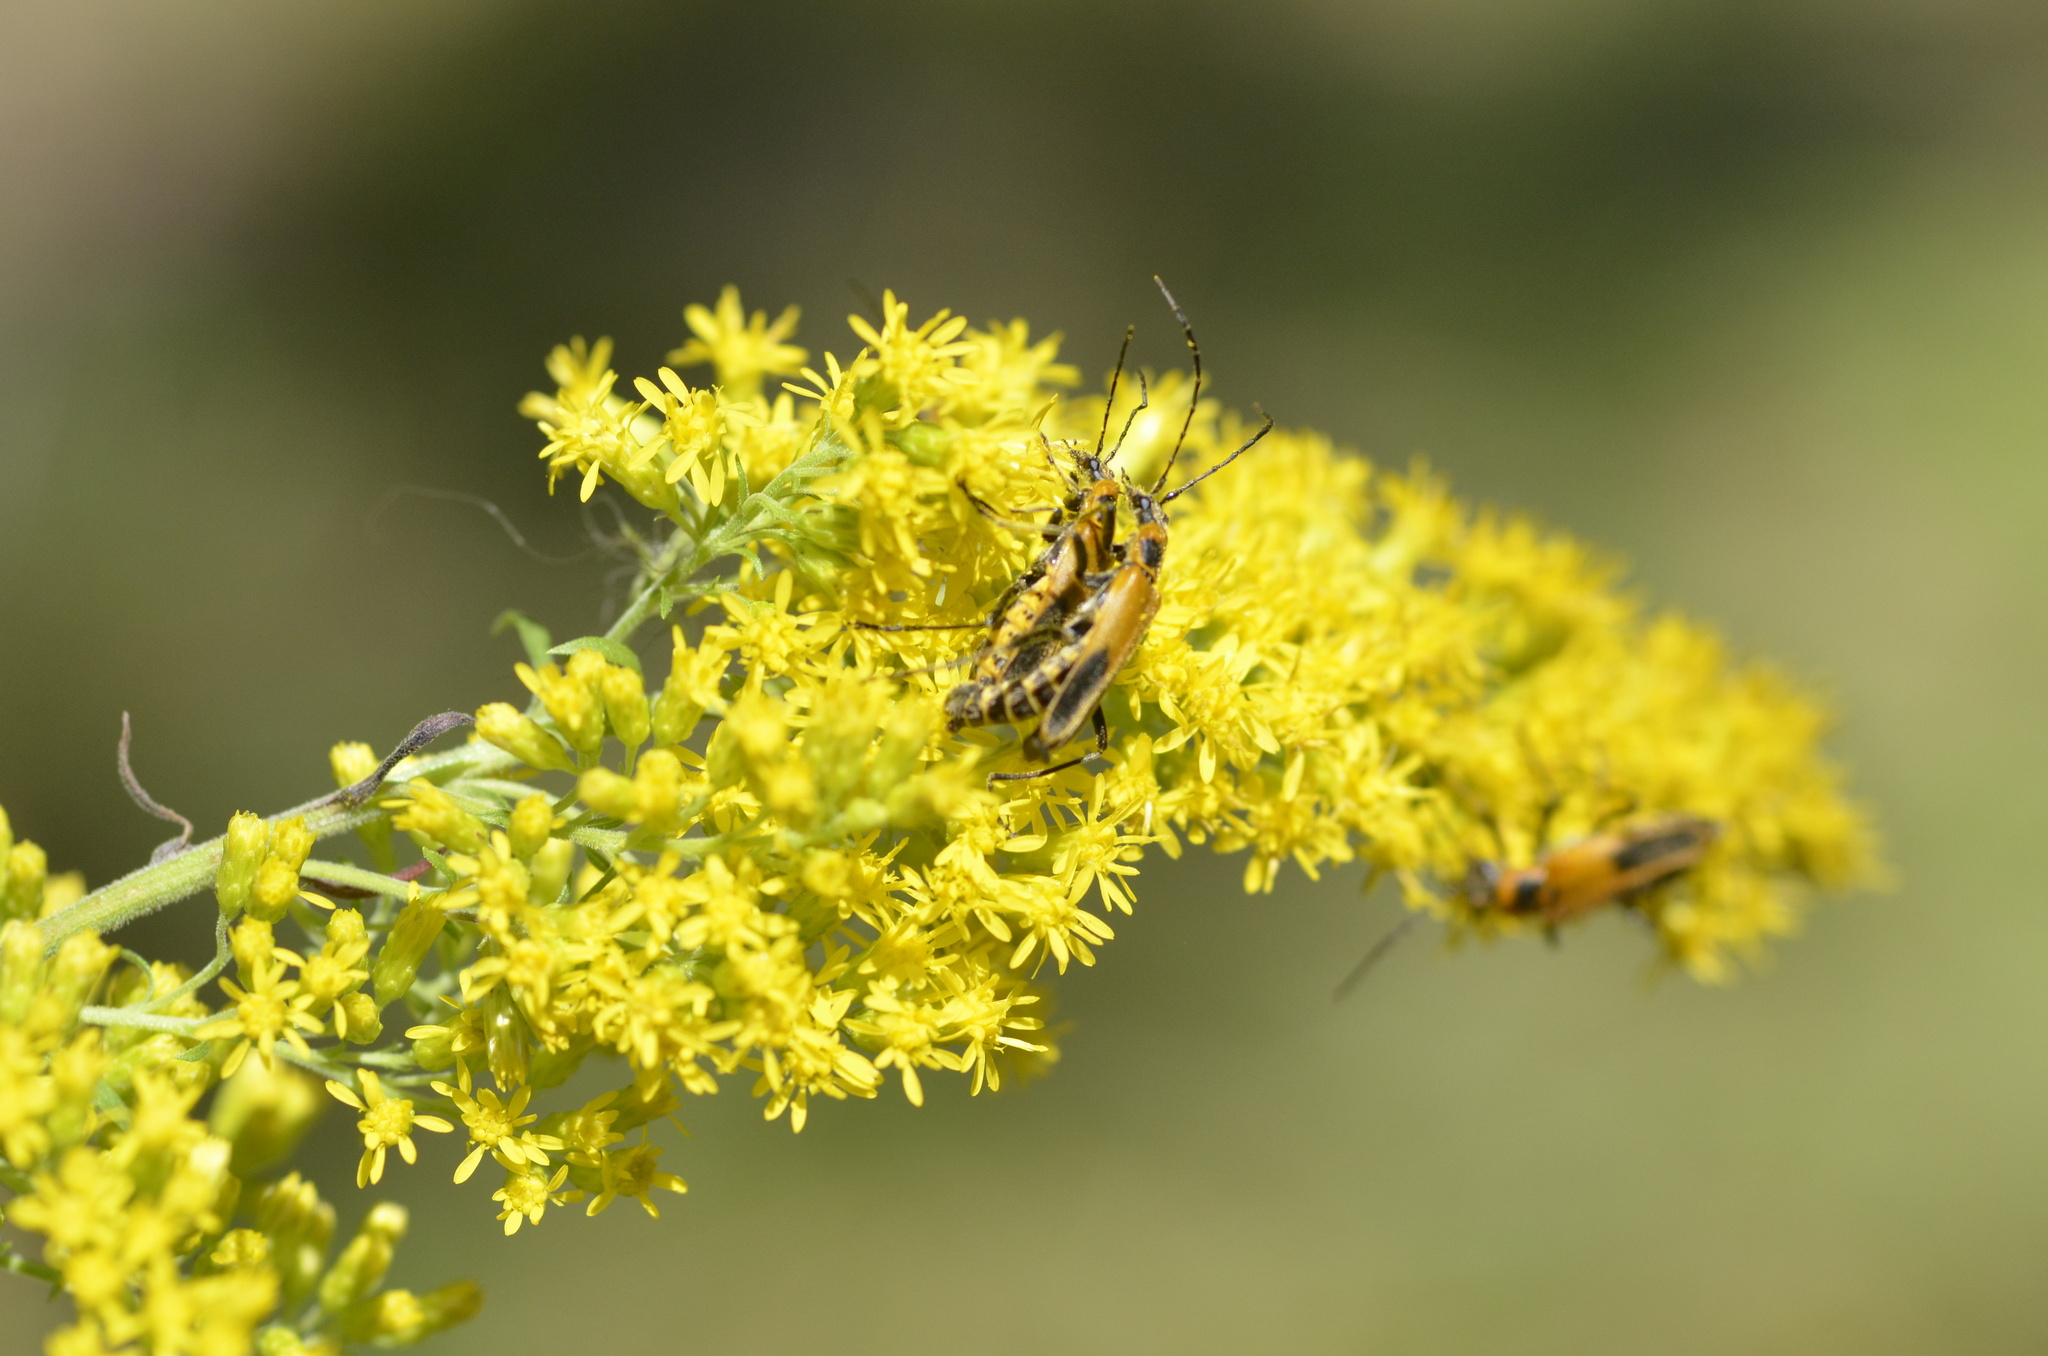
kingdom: Animalia
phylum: Arthropoda
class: Insecta
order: Coleoptera
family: Cantharidae
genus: Chauliognathus
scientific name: Chauliognathus pensylvanicus
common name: Goldenrod soldier beetle
